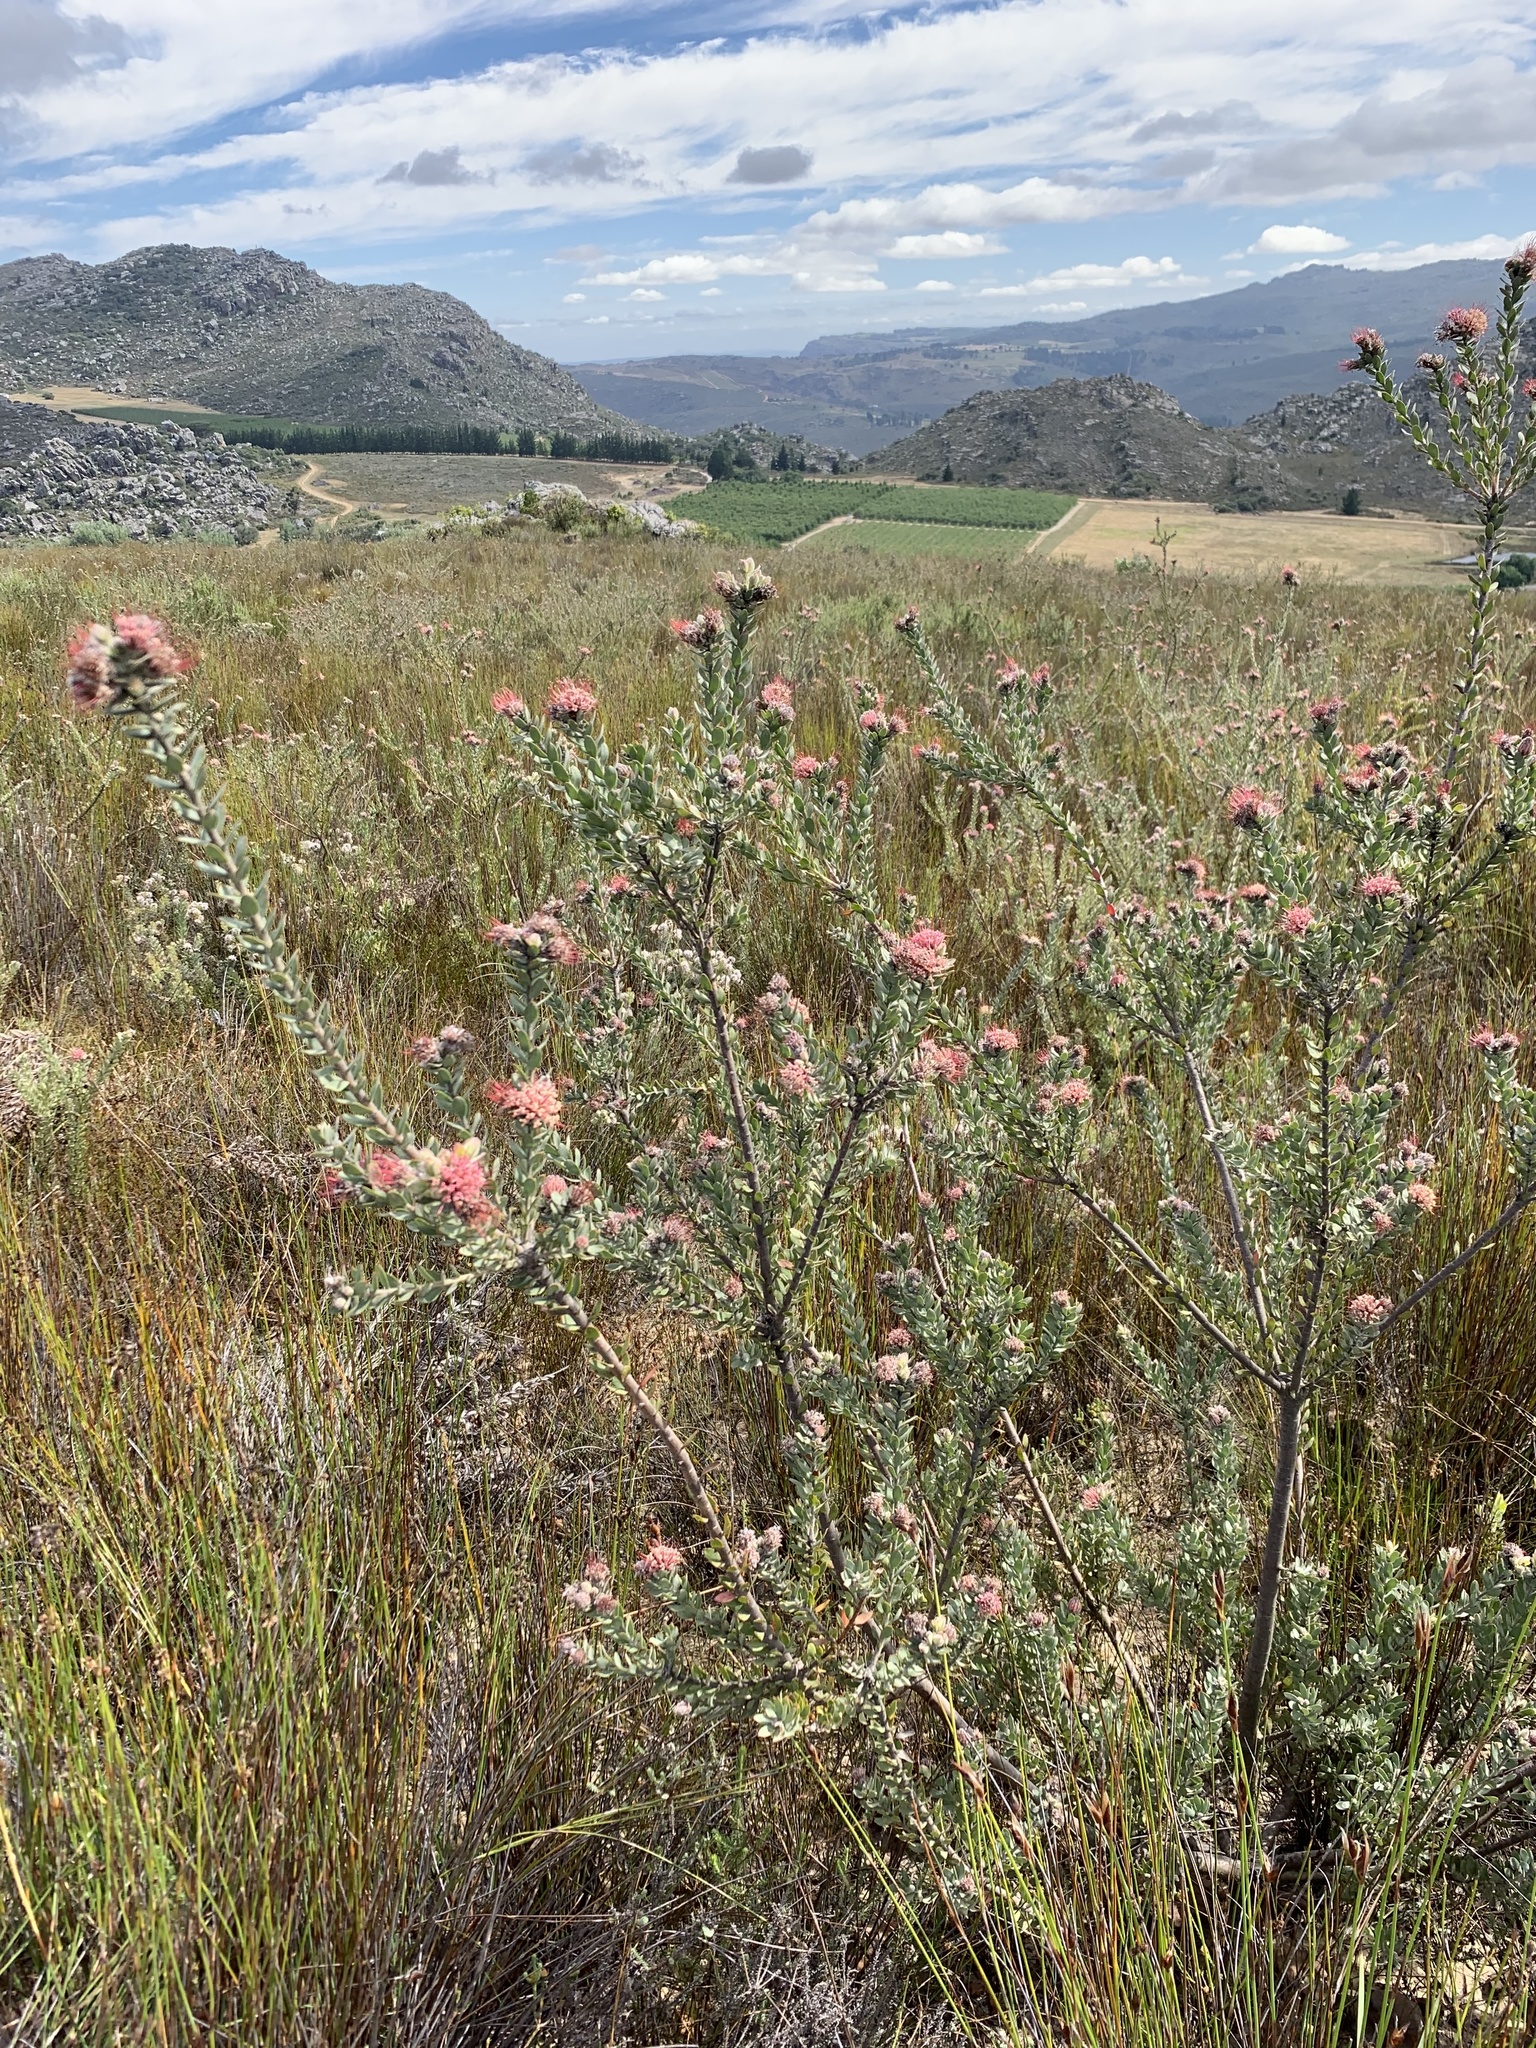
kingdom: Plantae
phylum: Tracheophyta
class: Magnoliopsida
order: Proteales
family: Proteaceae
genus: Leucospermum
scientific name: Leucospermum calligerum
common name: Arid pincushion
